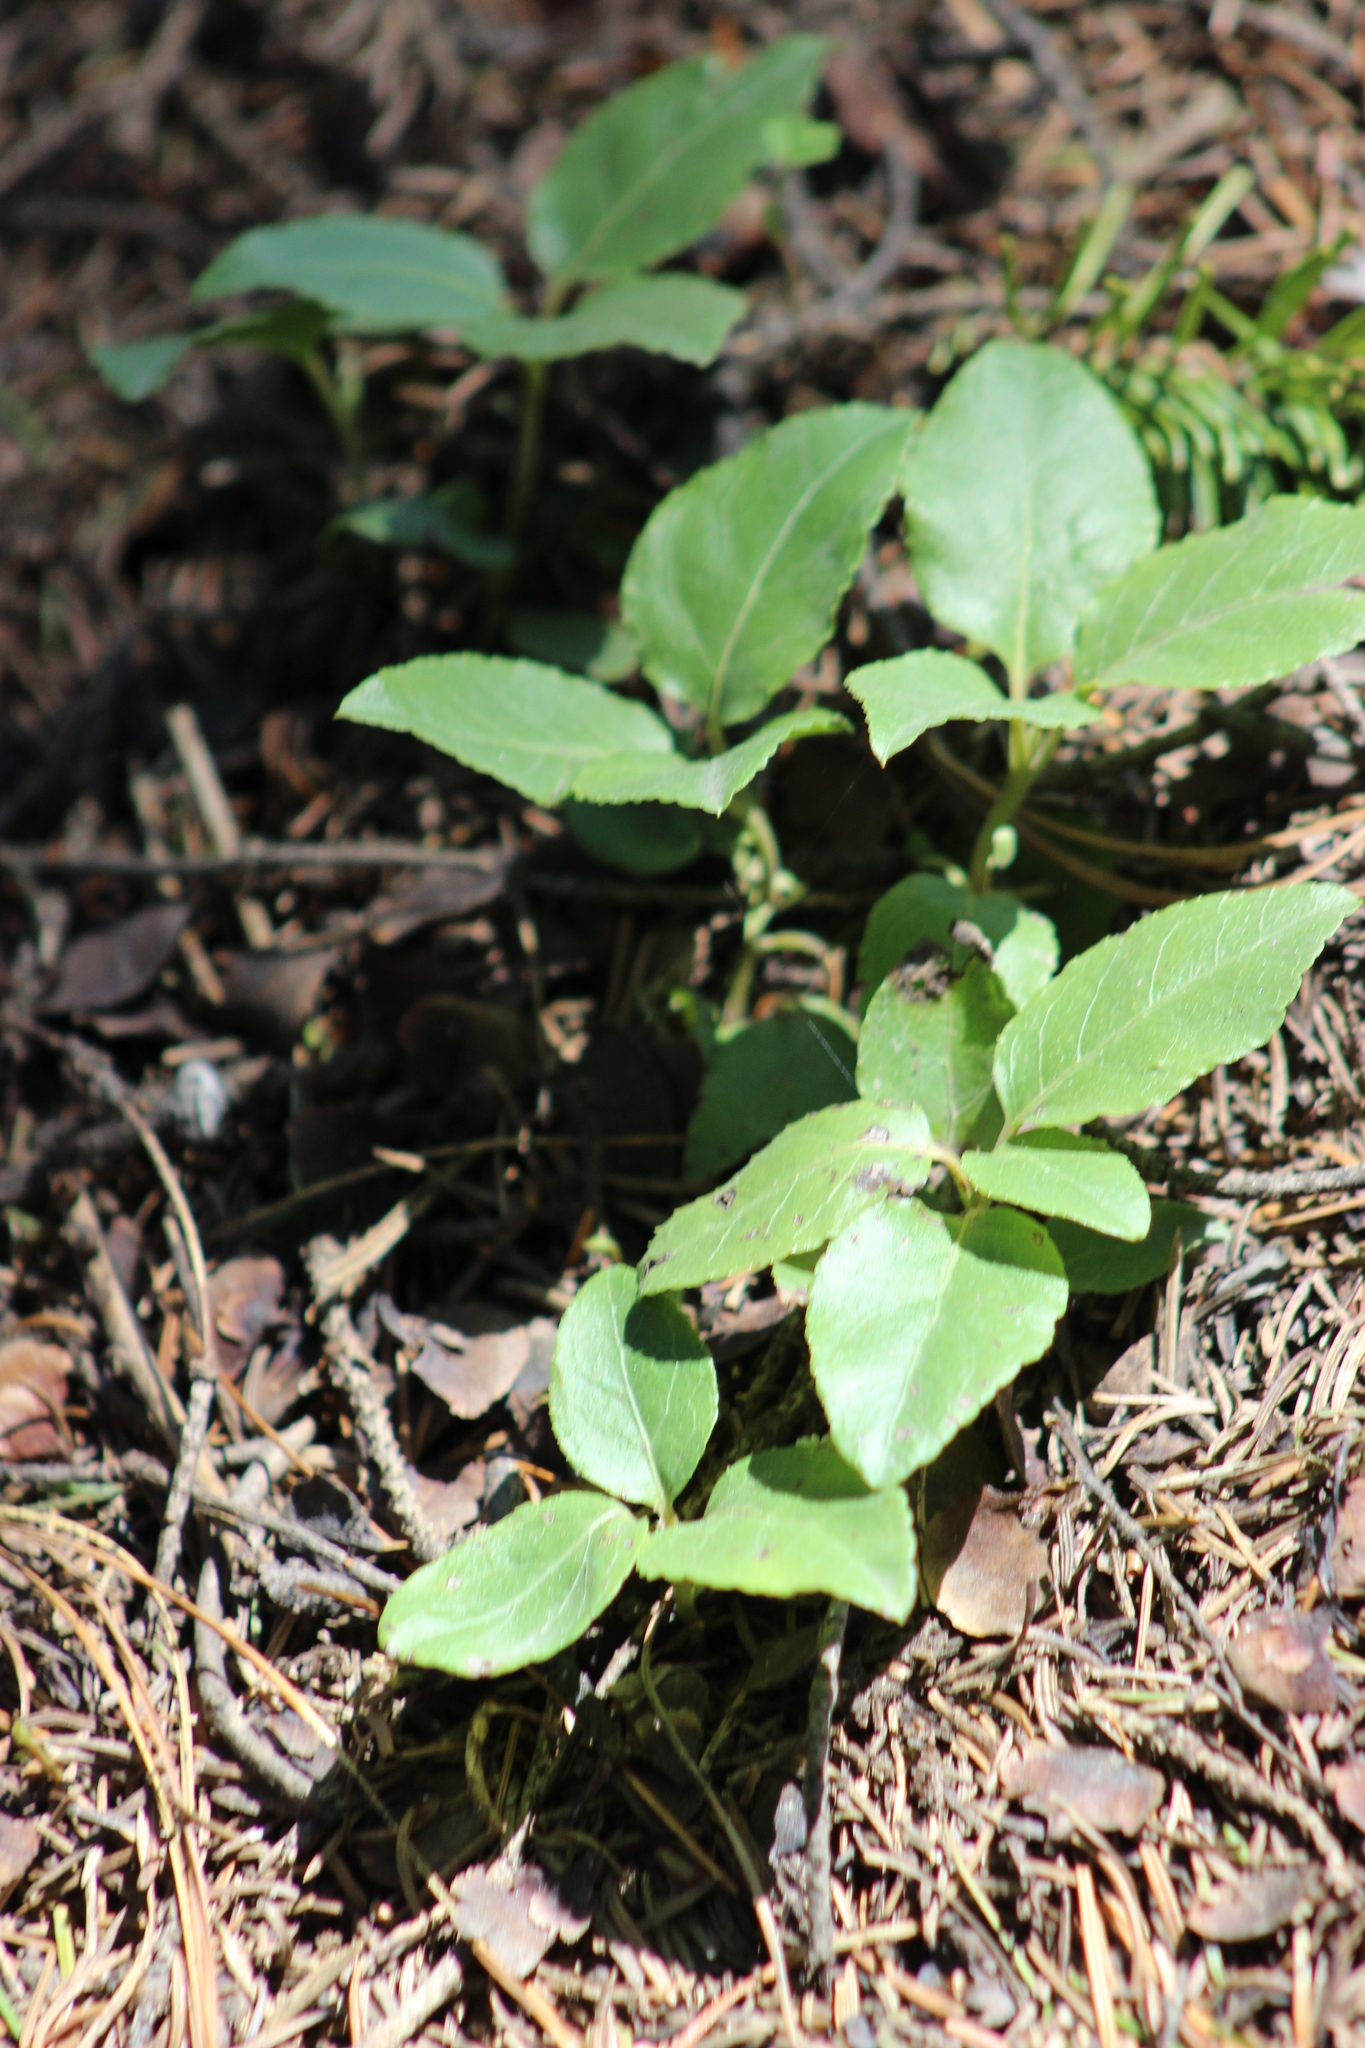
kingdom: Plantae
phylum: Tracheophyta
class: Magnoliopsida
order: Ericales
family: Ericaceae
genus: Orthilia
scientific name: Orthilia secunda
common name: One-sided orthilia
